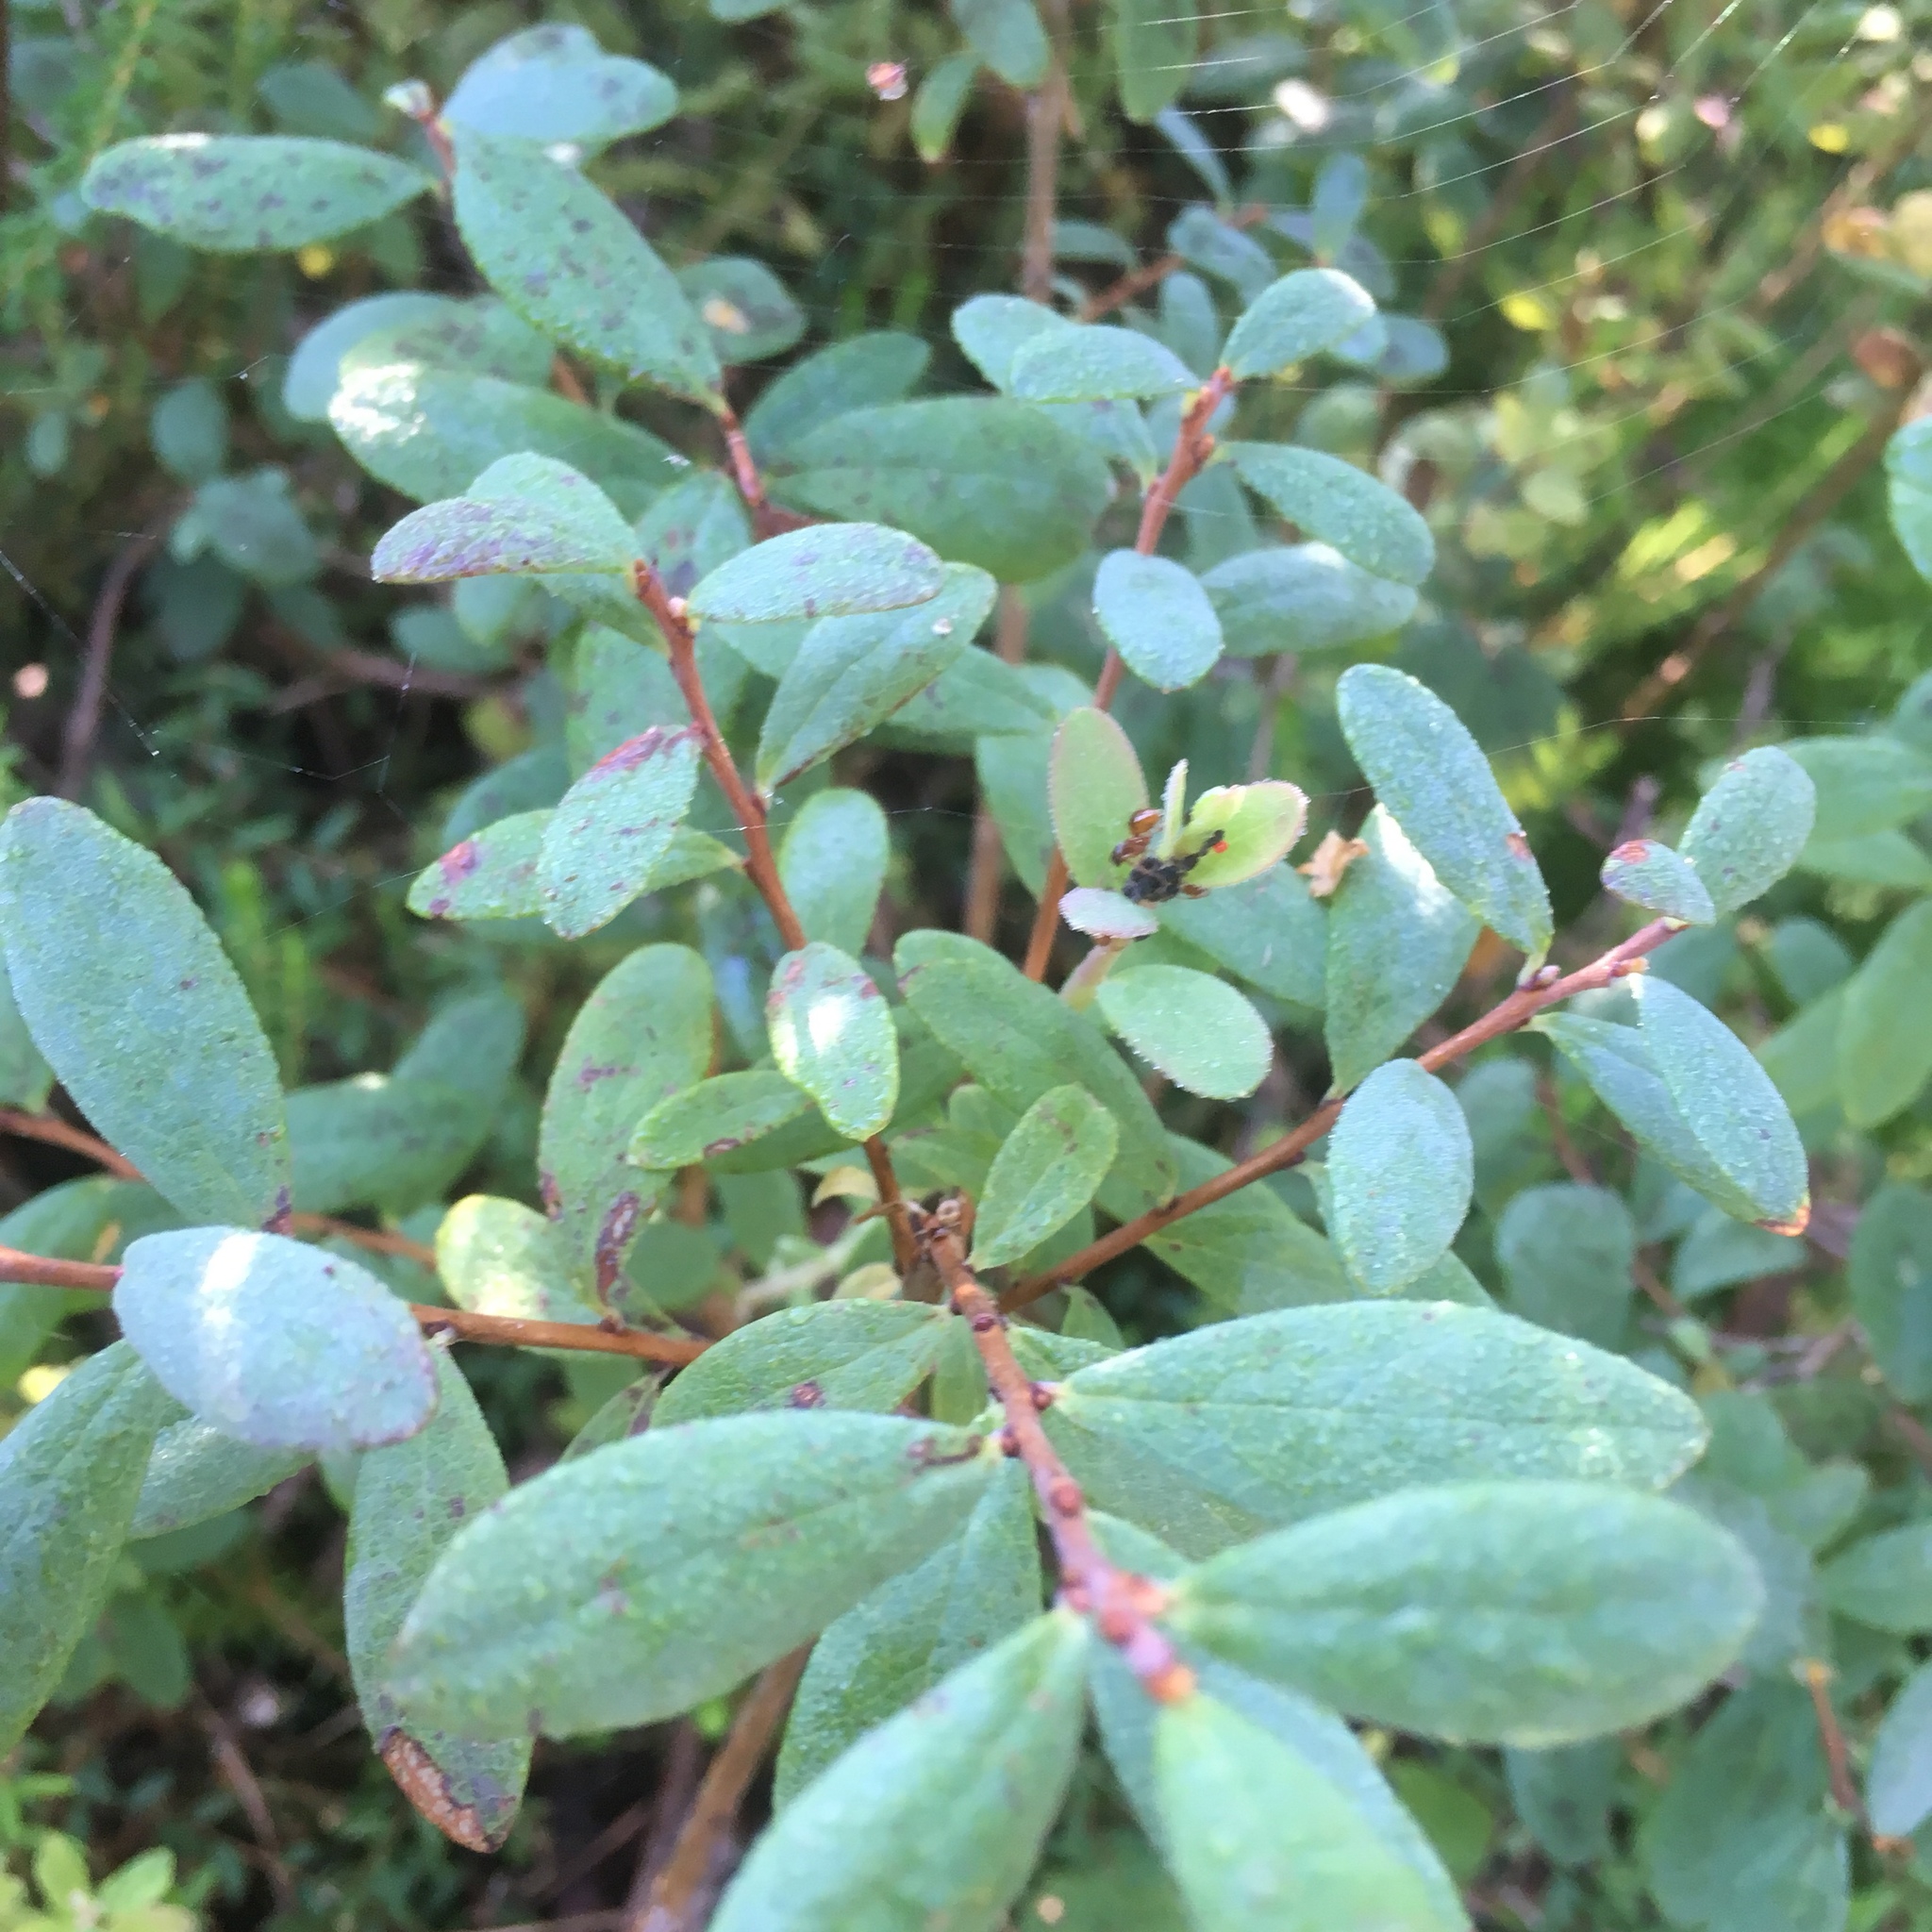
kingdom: Plantae
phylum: Tracheophyta
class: Magnoliopsida
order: Ericales
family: Ericaceae
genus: Vaccinium
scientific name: Vaccinium uliginosum
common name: Bog bilberry
